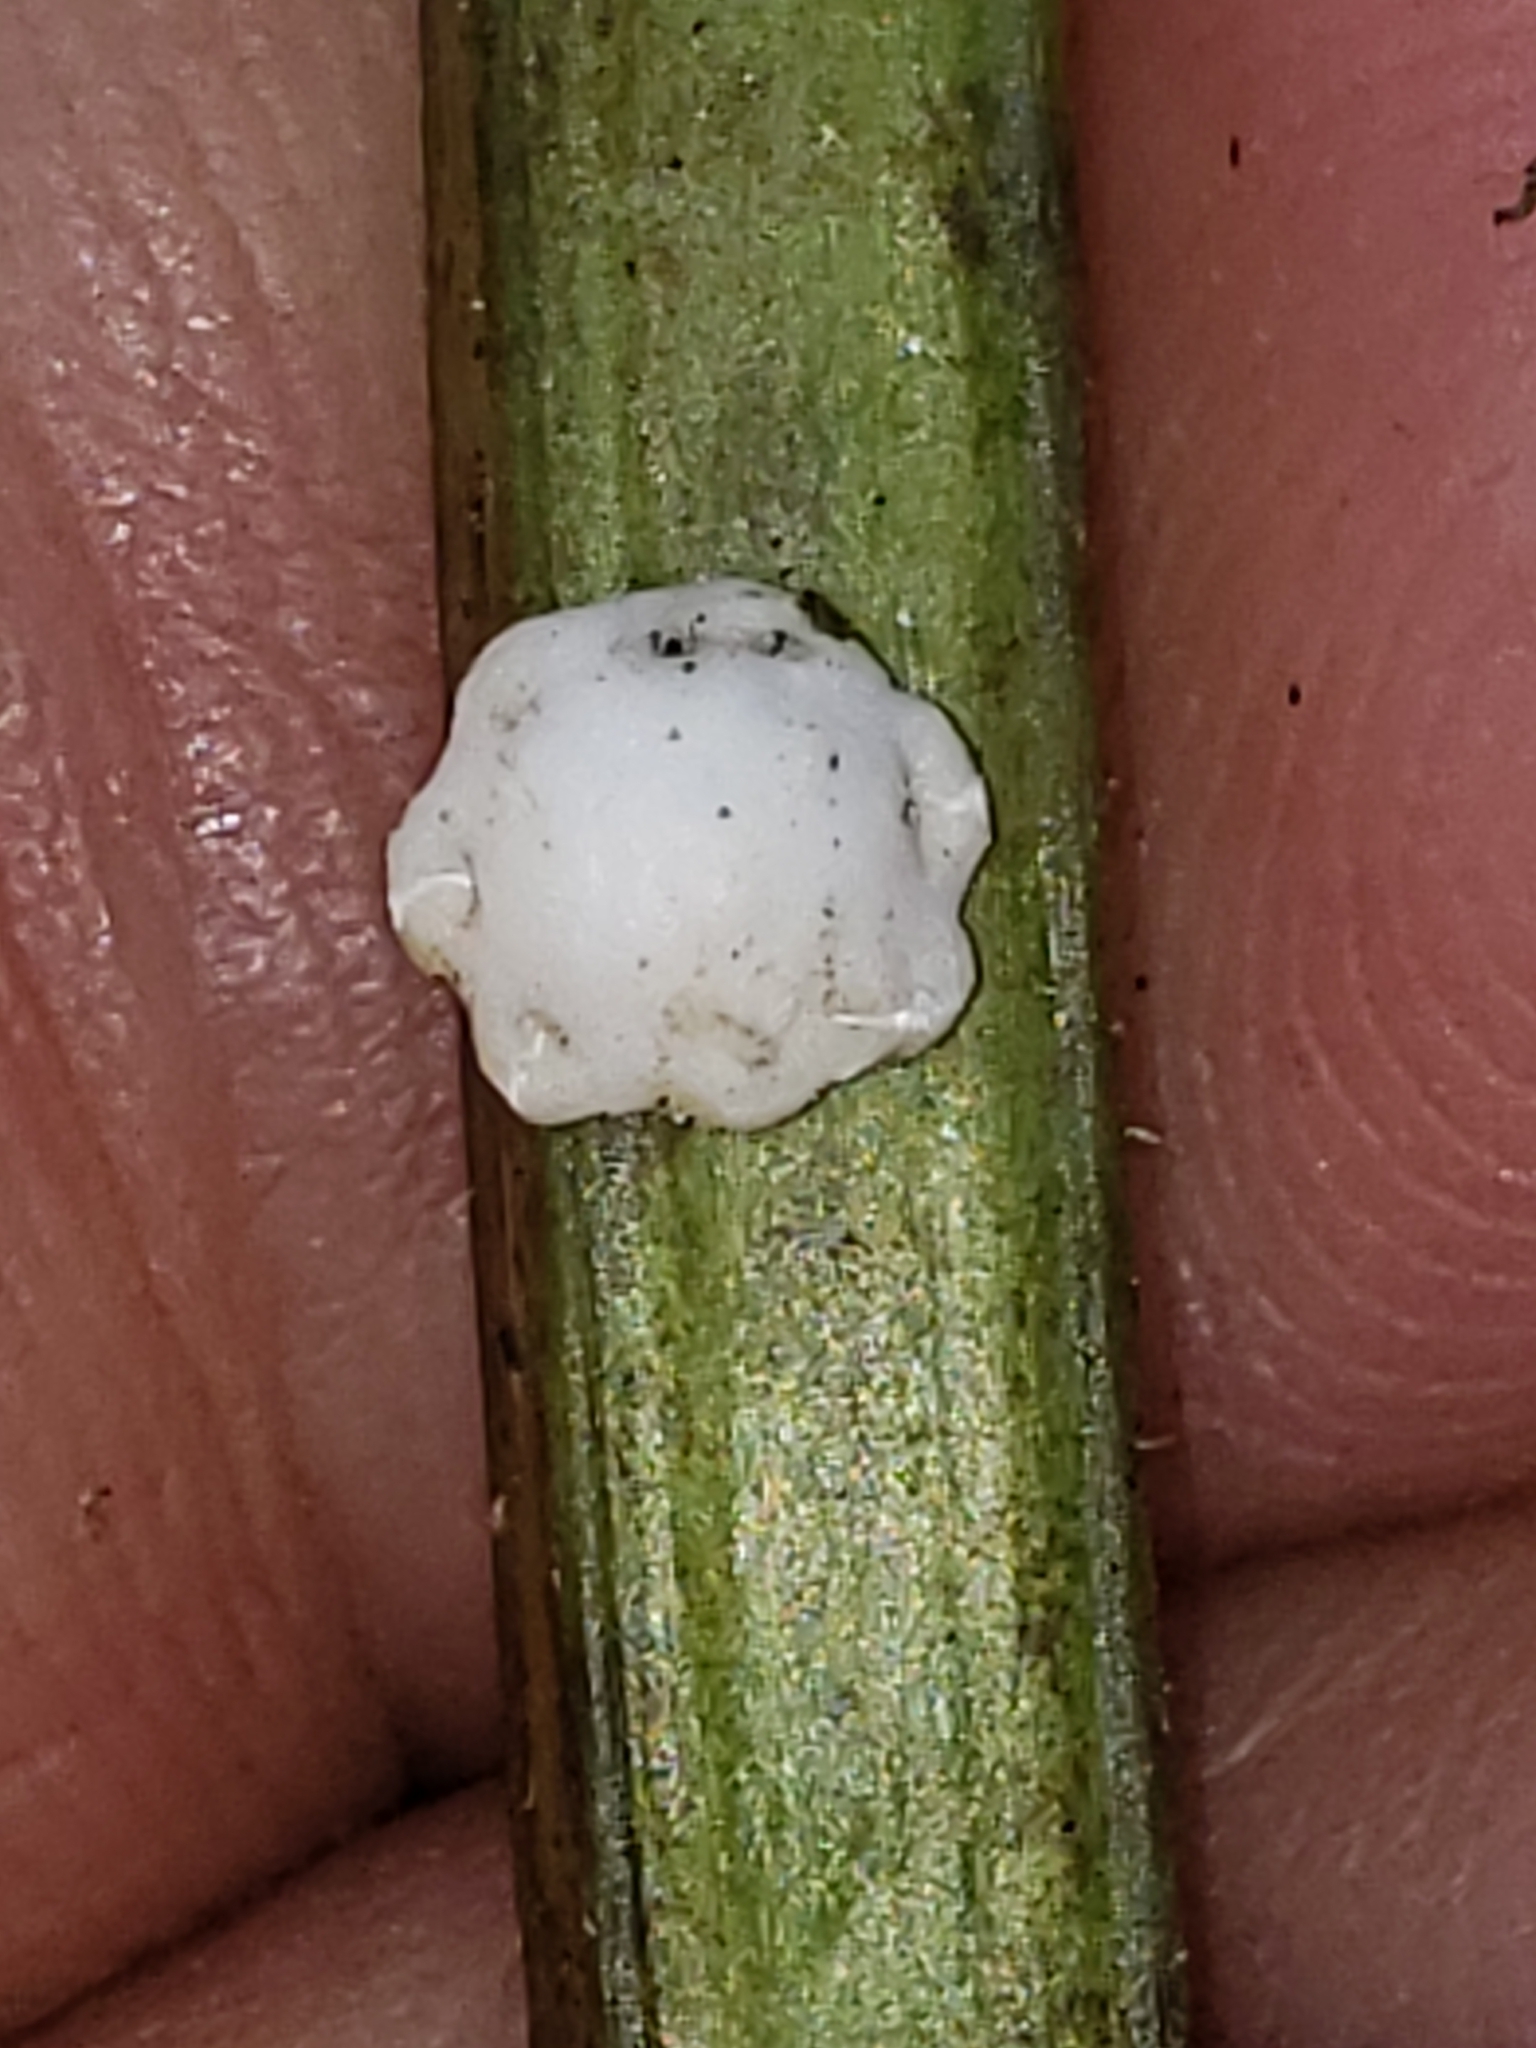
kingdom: Animalia
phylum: Arthropoda
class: Insecta
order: Hemiptera
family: Coccidae
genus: Ceroplastes
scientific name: Ceroplastes ceriferus
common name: Indian wax scale
